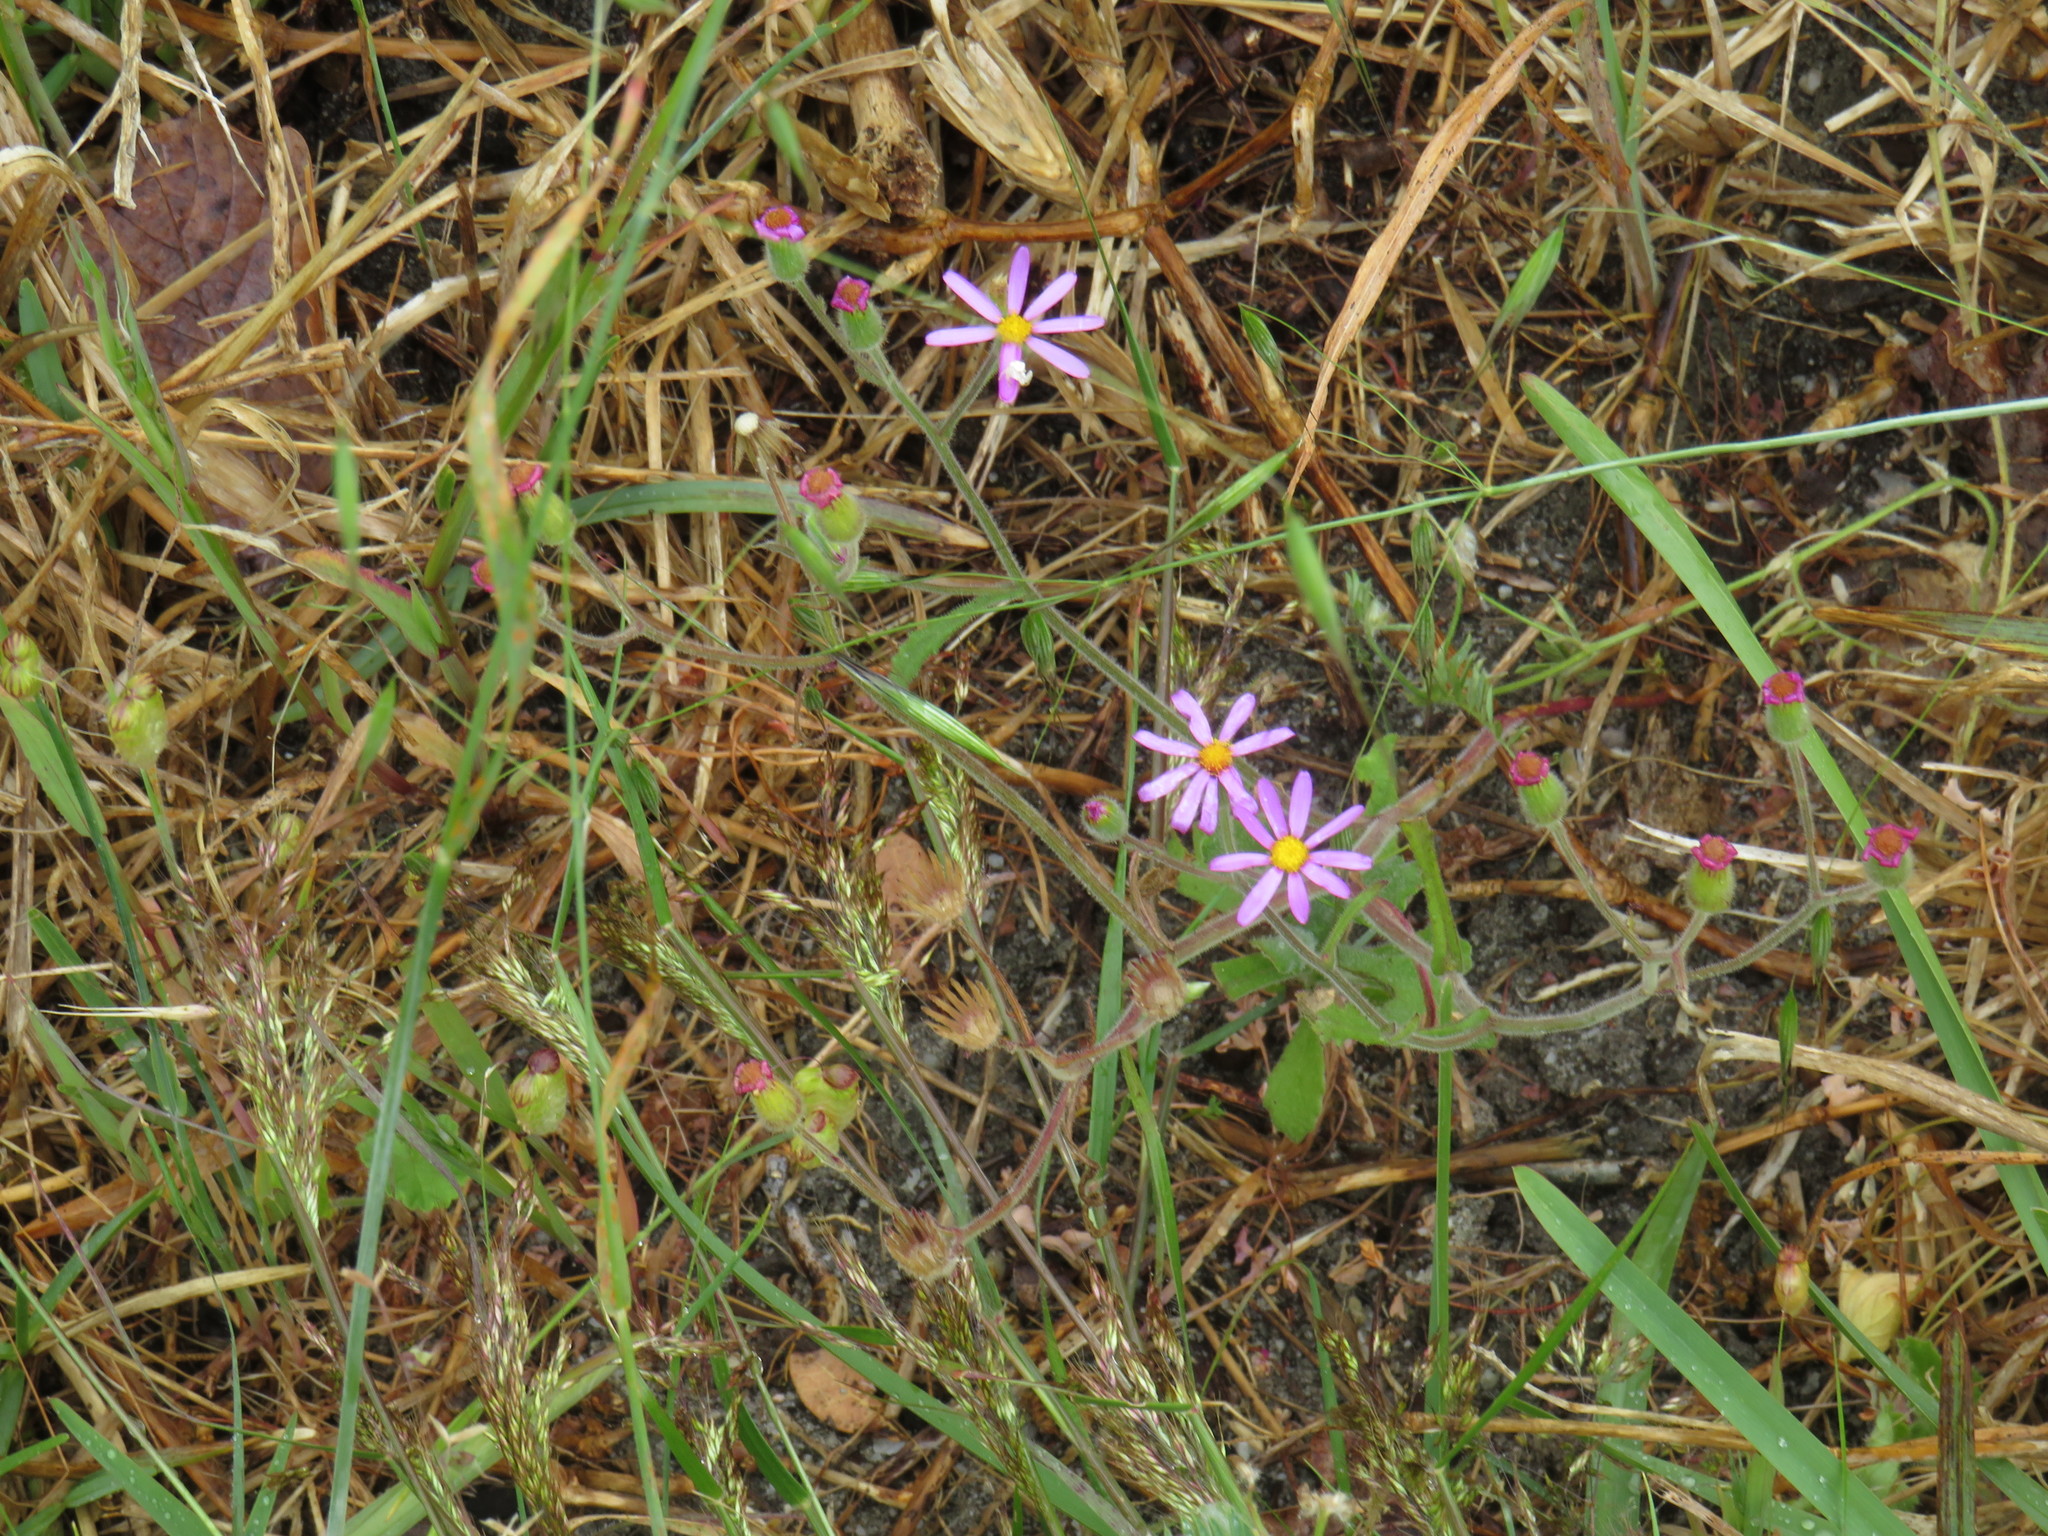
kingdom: Plantae
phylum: Tracheophyta
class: Magnoliopsida
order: Asterales
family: Asteraceae
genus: Senecio
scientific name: Senecio arenarius
